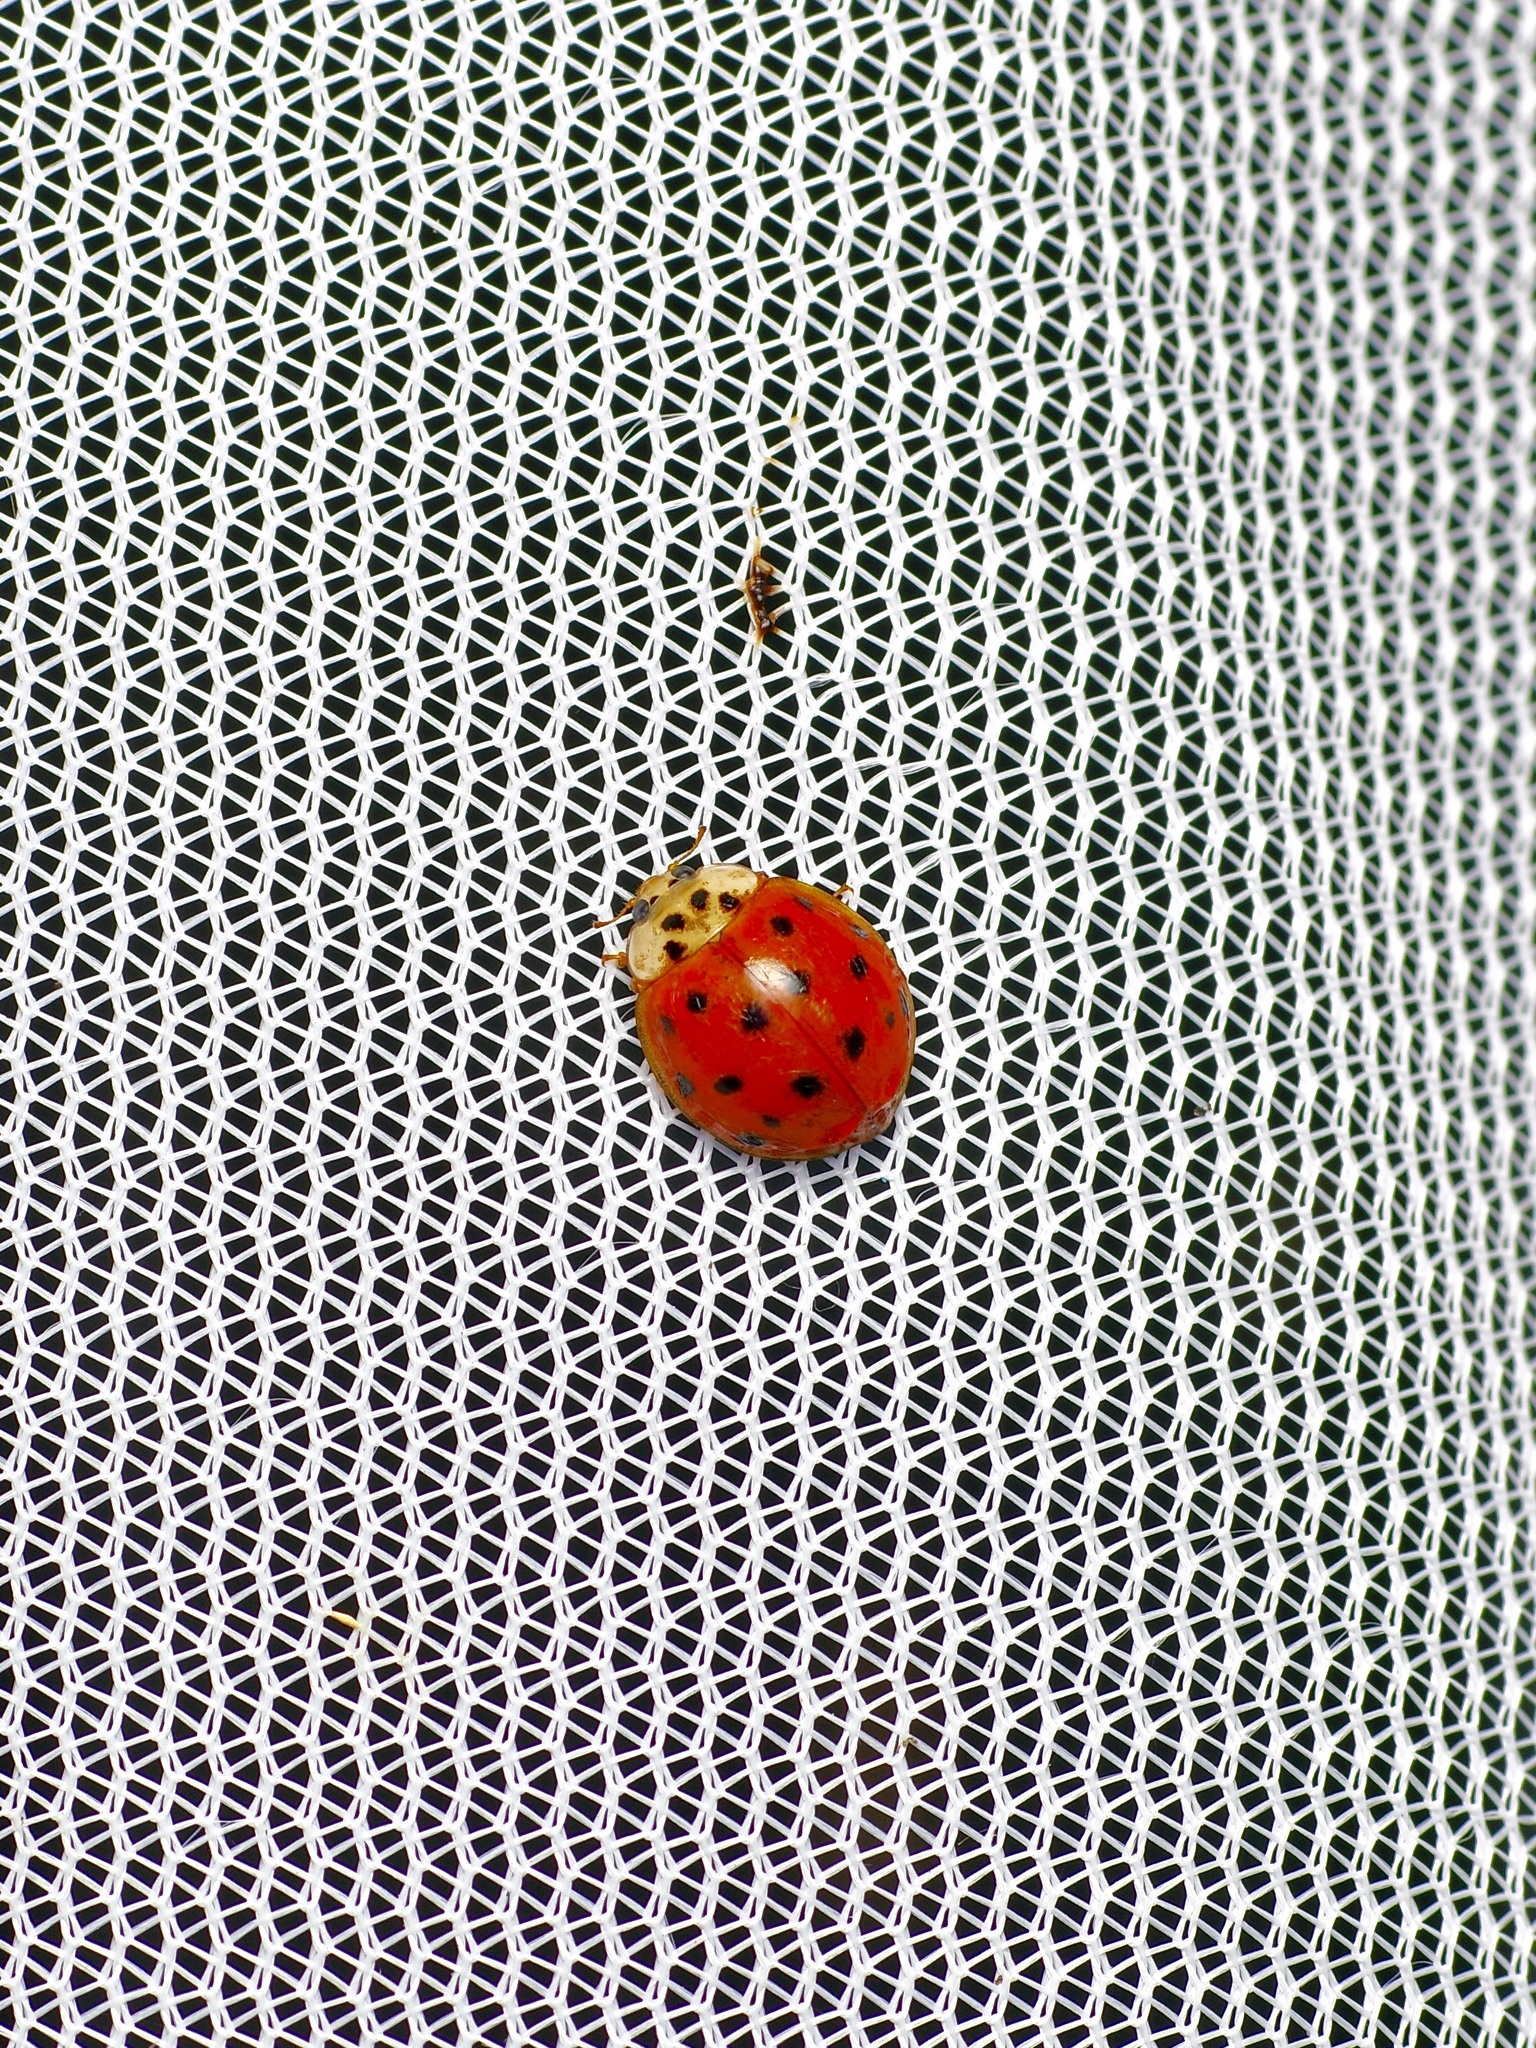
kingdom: Animalia
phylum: Arthropoda
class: Insecta
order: Coleoptera
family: Coccinellidae
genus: Harmonia
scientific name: Harmonia axyridis
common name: Harlequin ladybird
